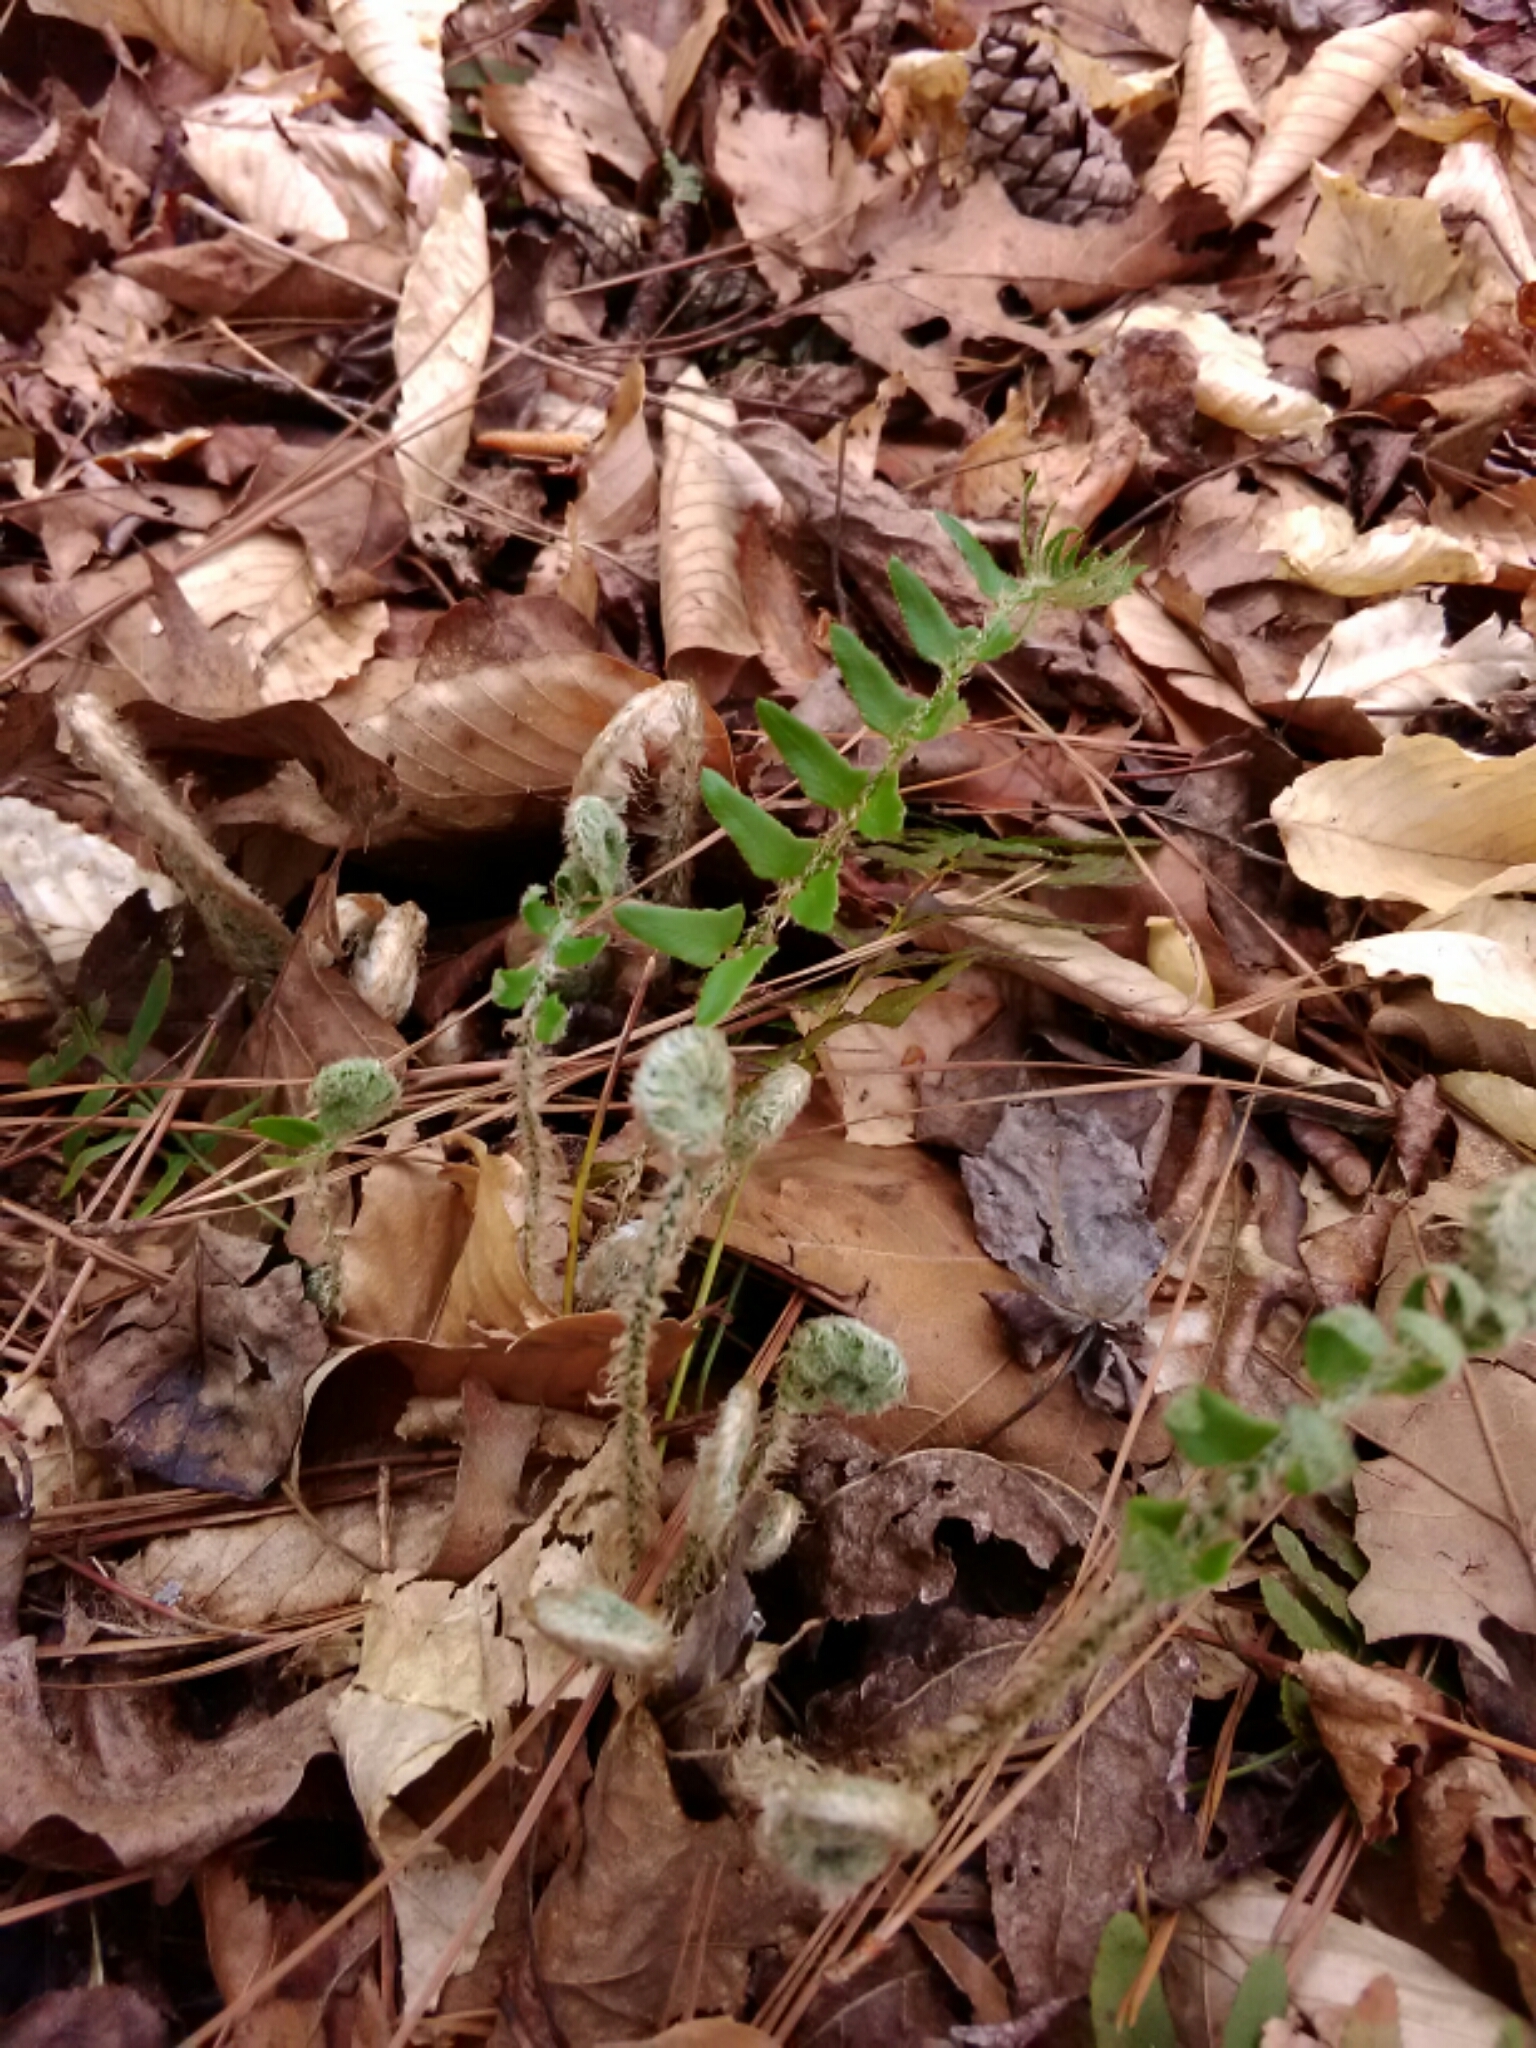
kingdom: Plantae
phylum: Tracheophyta
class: Polypodiopsida
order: Polypodiales
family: Dryopteridaceae
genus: Polystichum
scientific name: Polystichum acrostichoides
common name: Christmas fern
